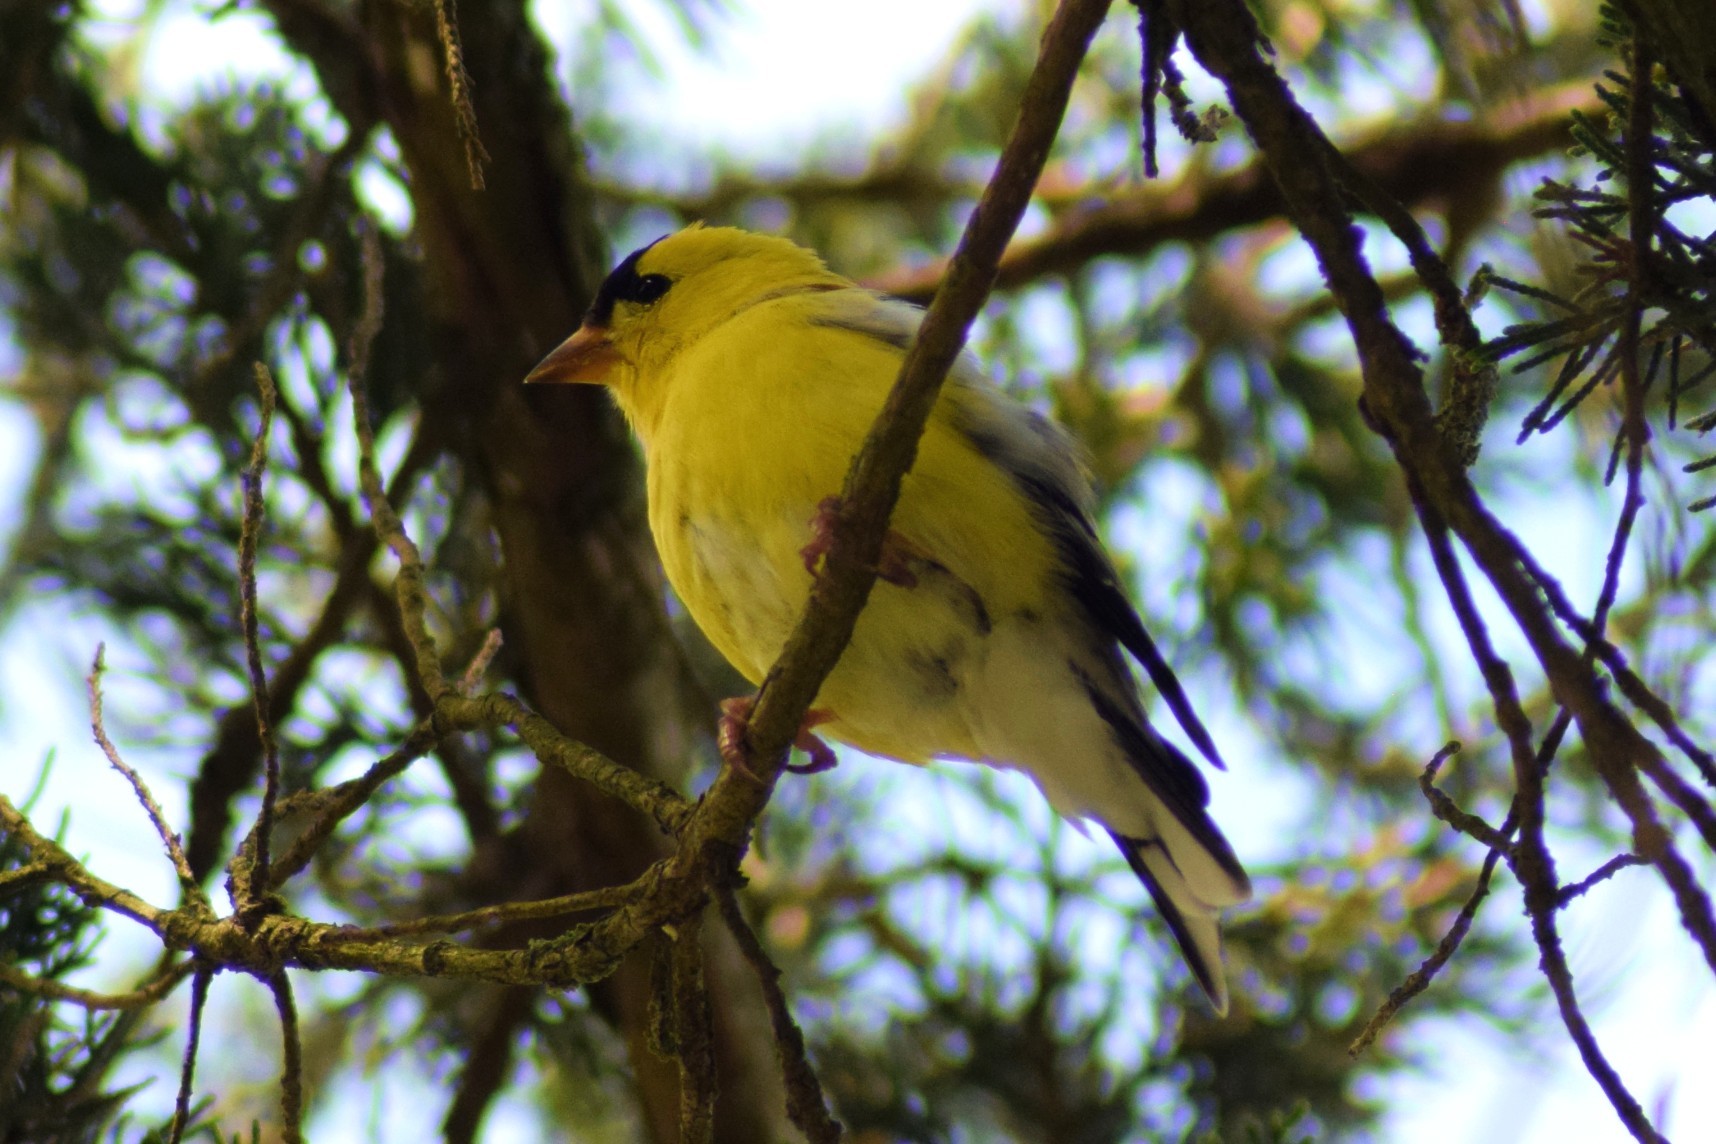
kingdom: Animalia
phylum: Chordata
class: Aves
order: Passeriformes
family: Fringillidae
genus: Spinus
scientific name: Spinus tristis
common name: American goldfinch
